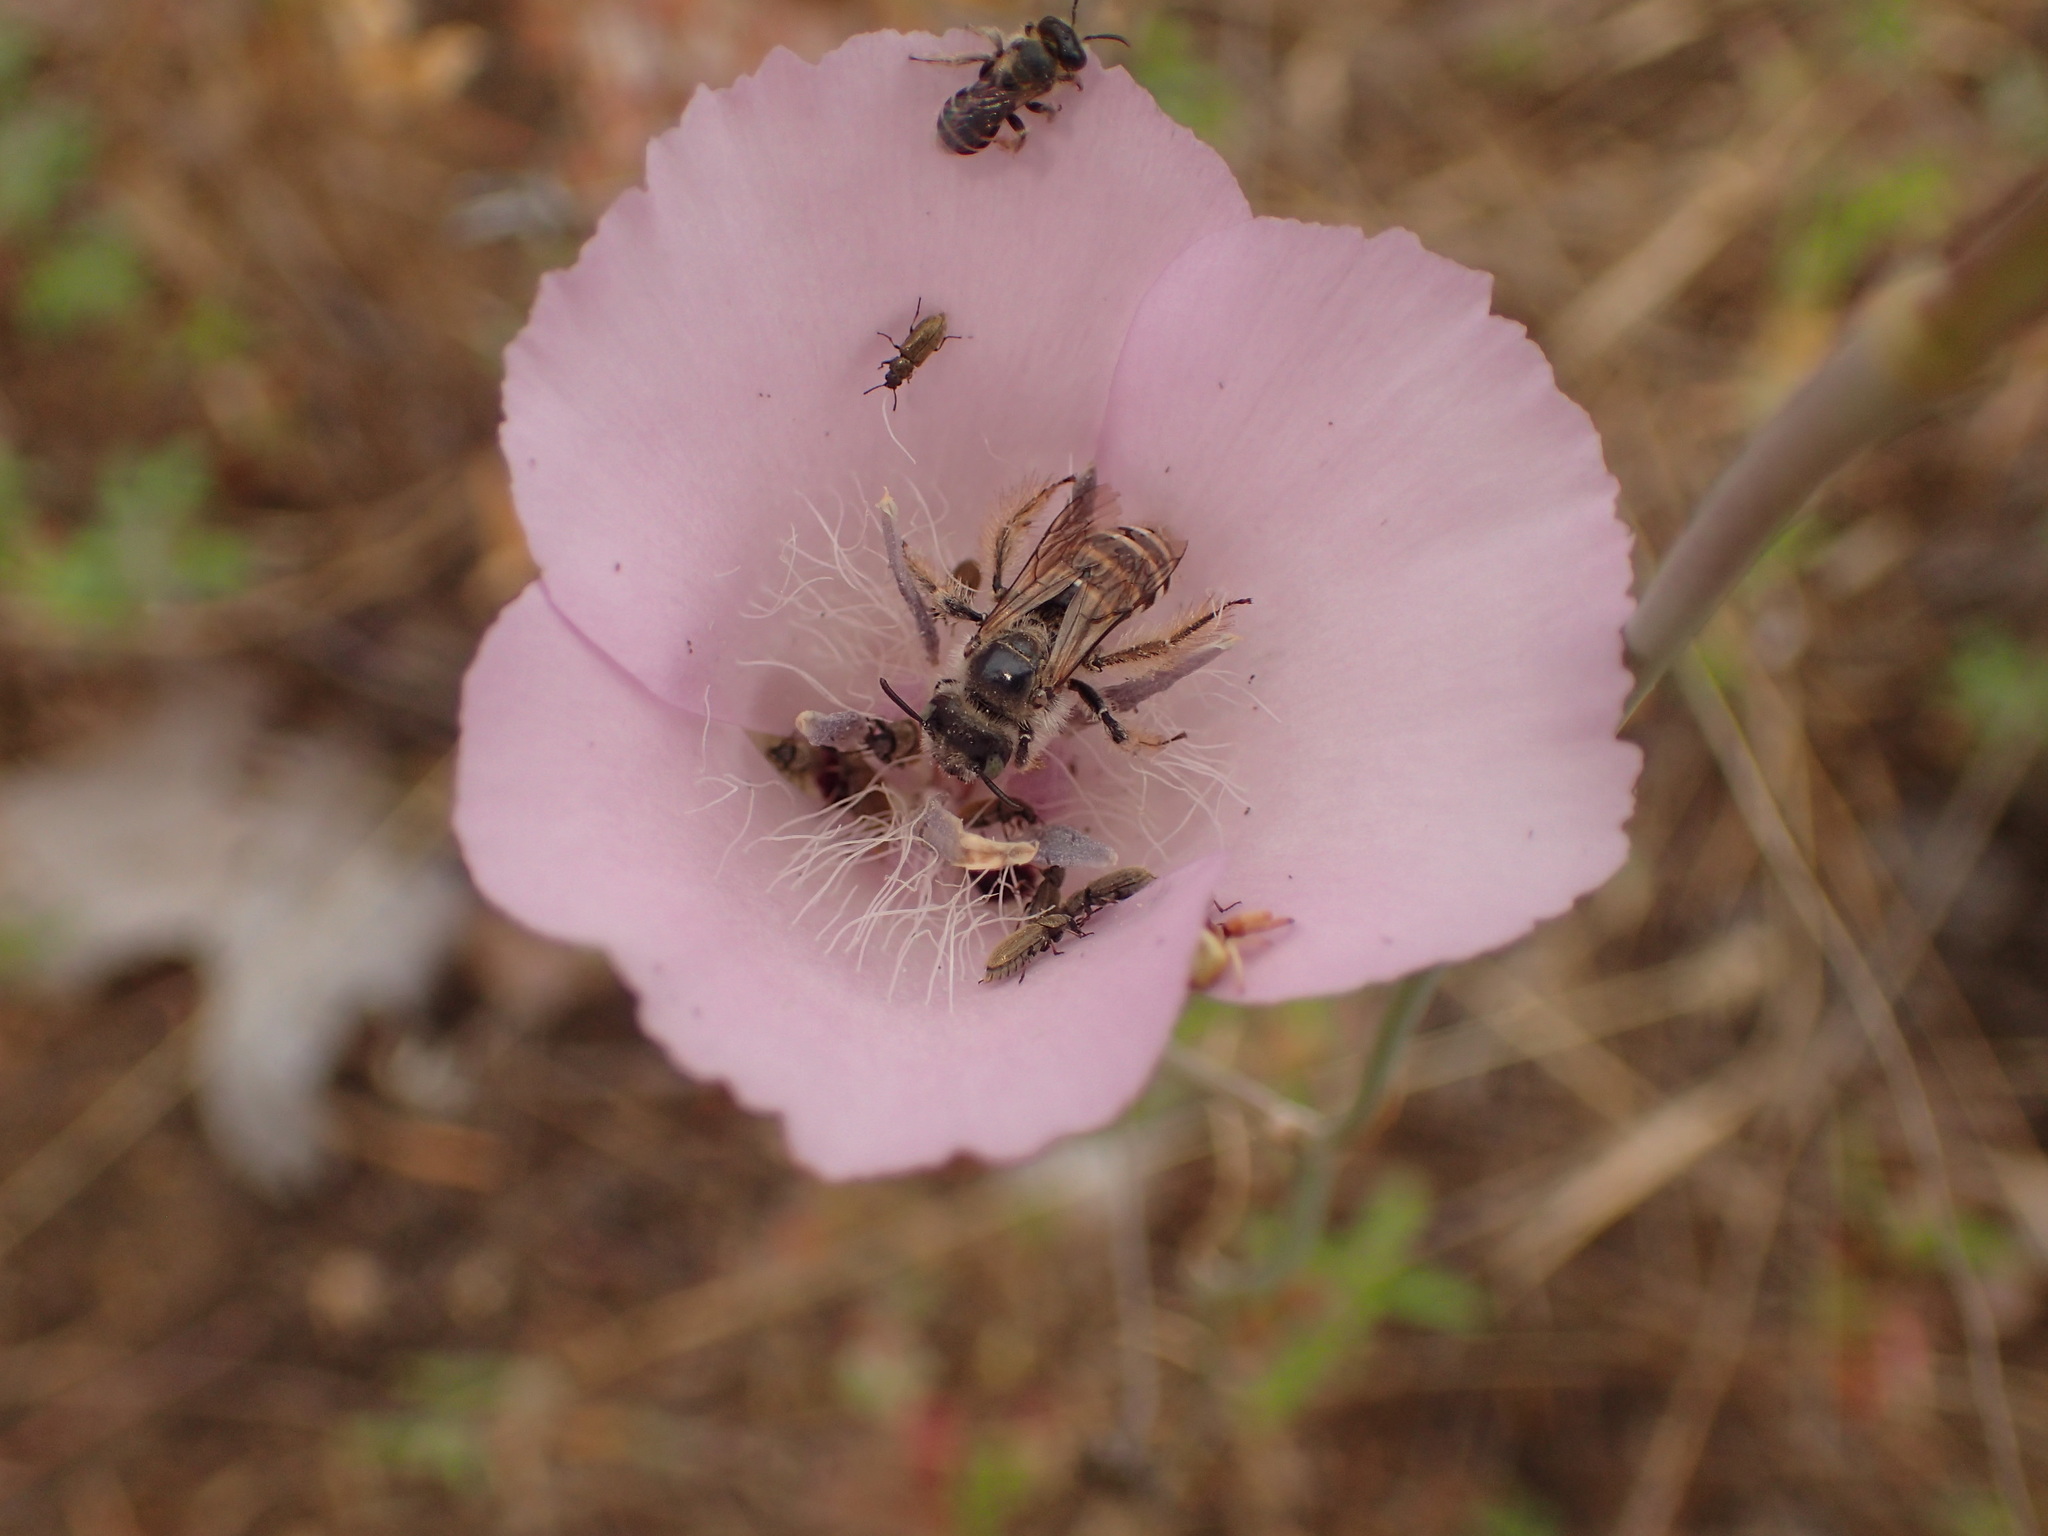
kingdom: Plantae
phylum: Tracheophyta
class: Liliopsida
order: Liliales
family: Liliaceae
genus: Calochortus
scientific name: Calochortus splendens
